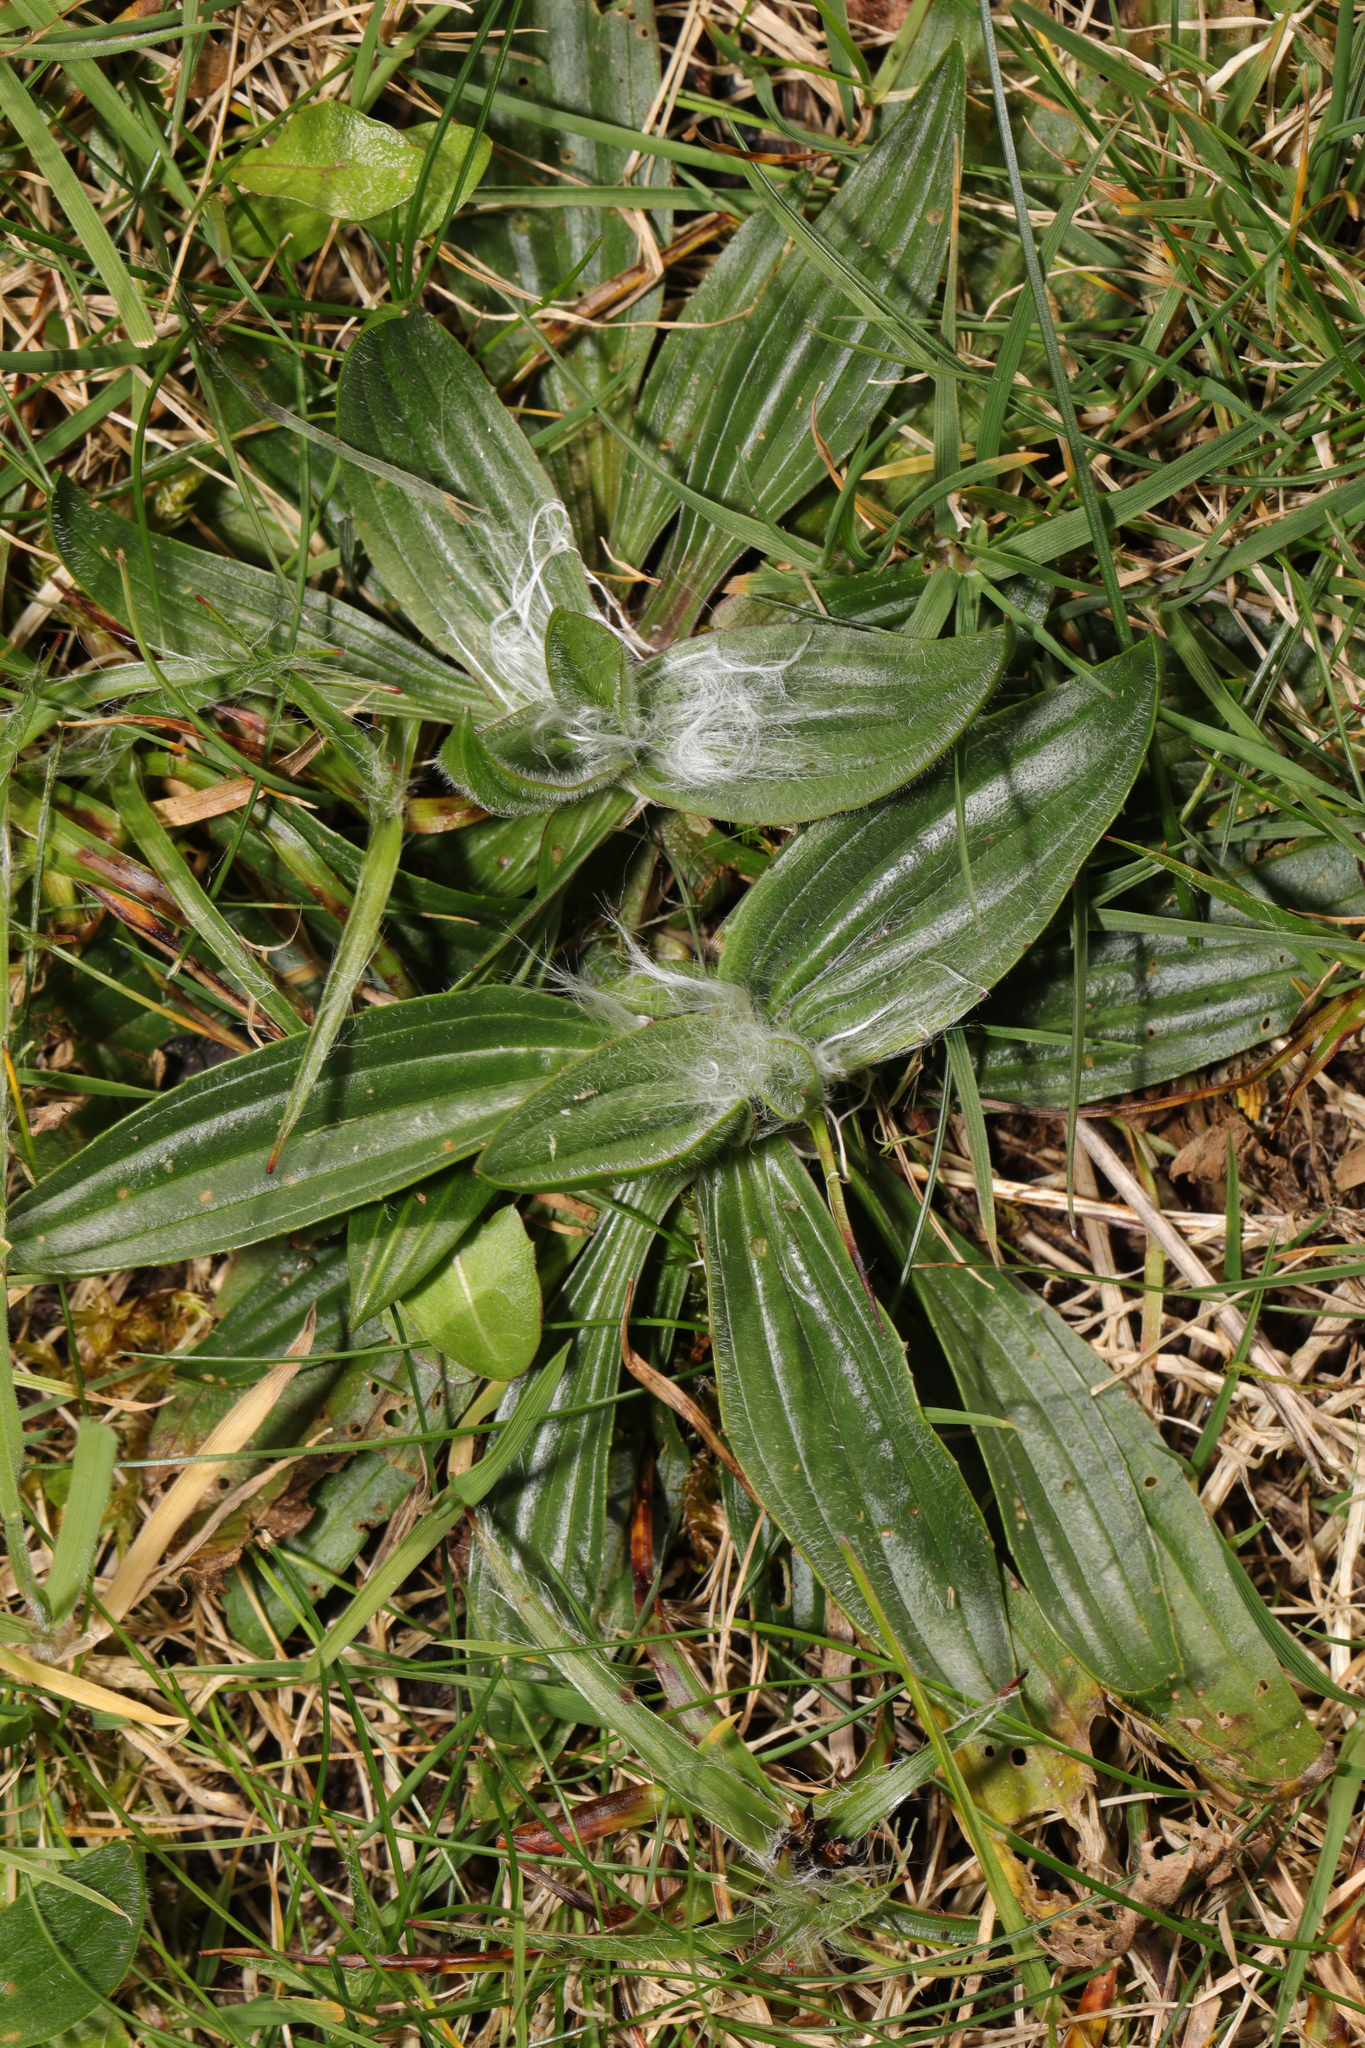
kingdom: Plantae
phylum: Tracheophyta
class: Magnoliopsida
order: Lamiales
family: Plantaginaceae
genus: Plantago
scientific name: Plantago lanceolata
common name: Ribwort plantain
